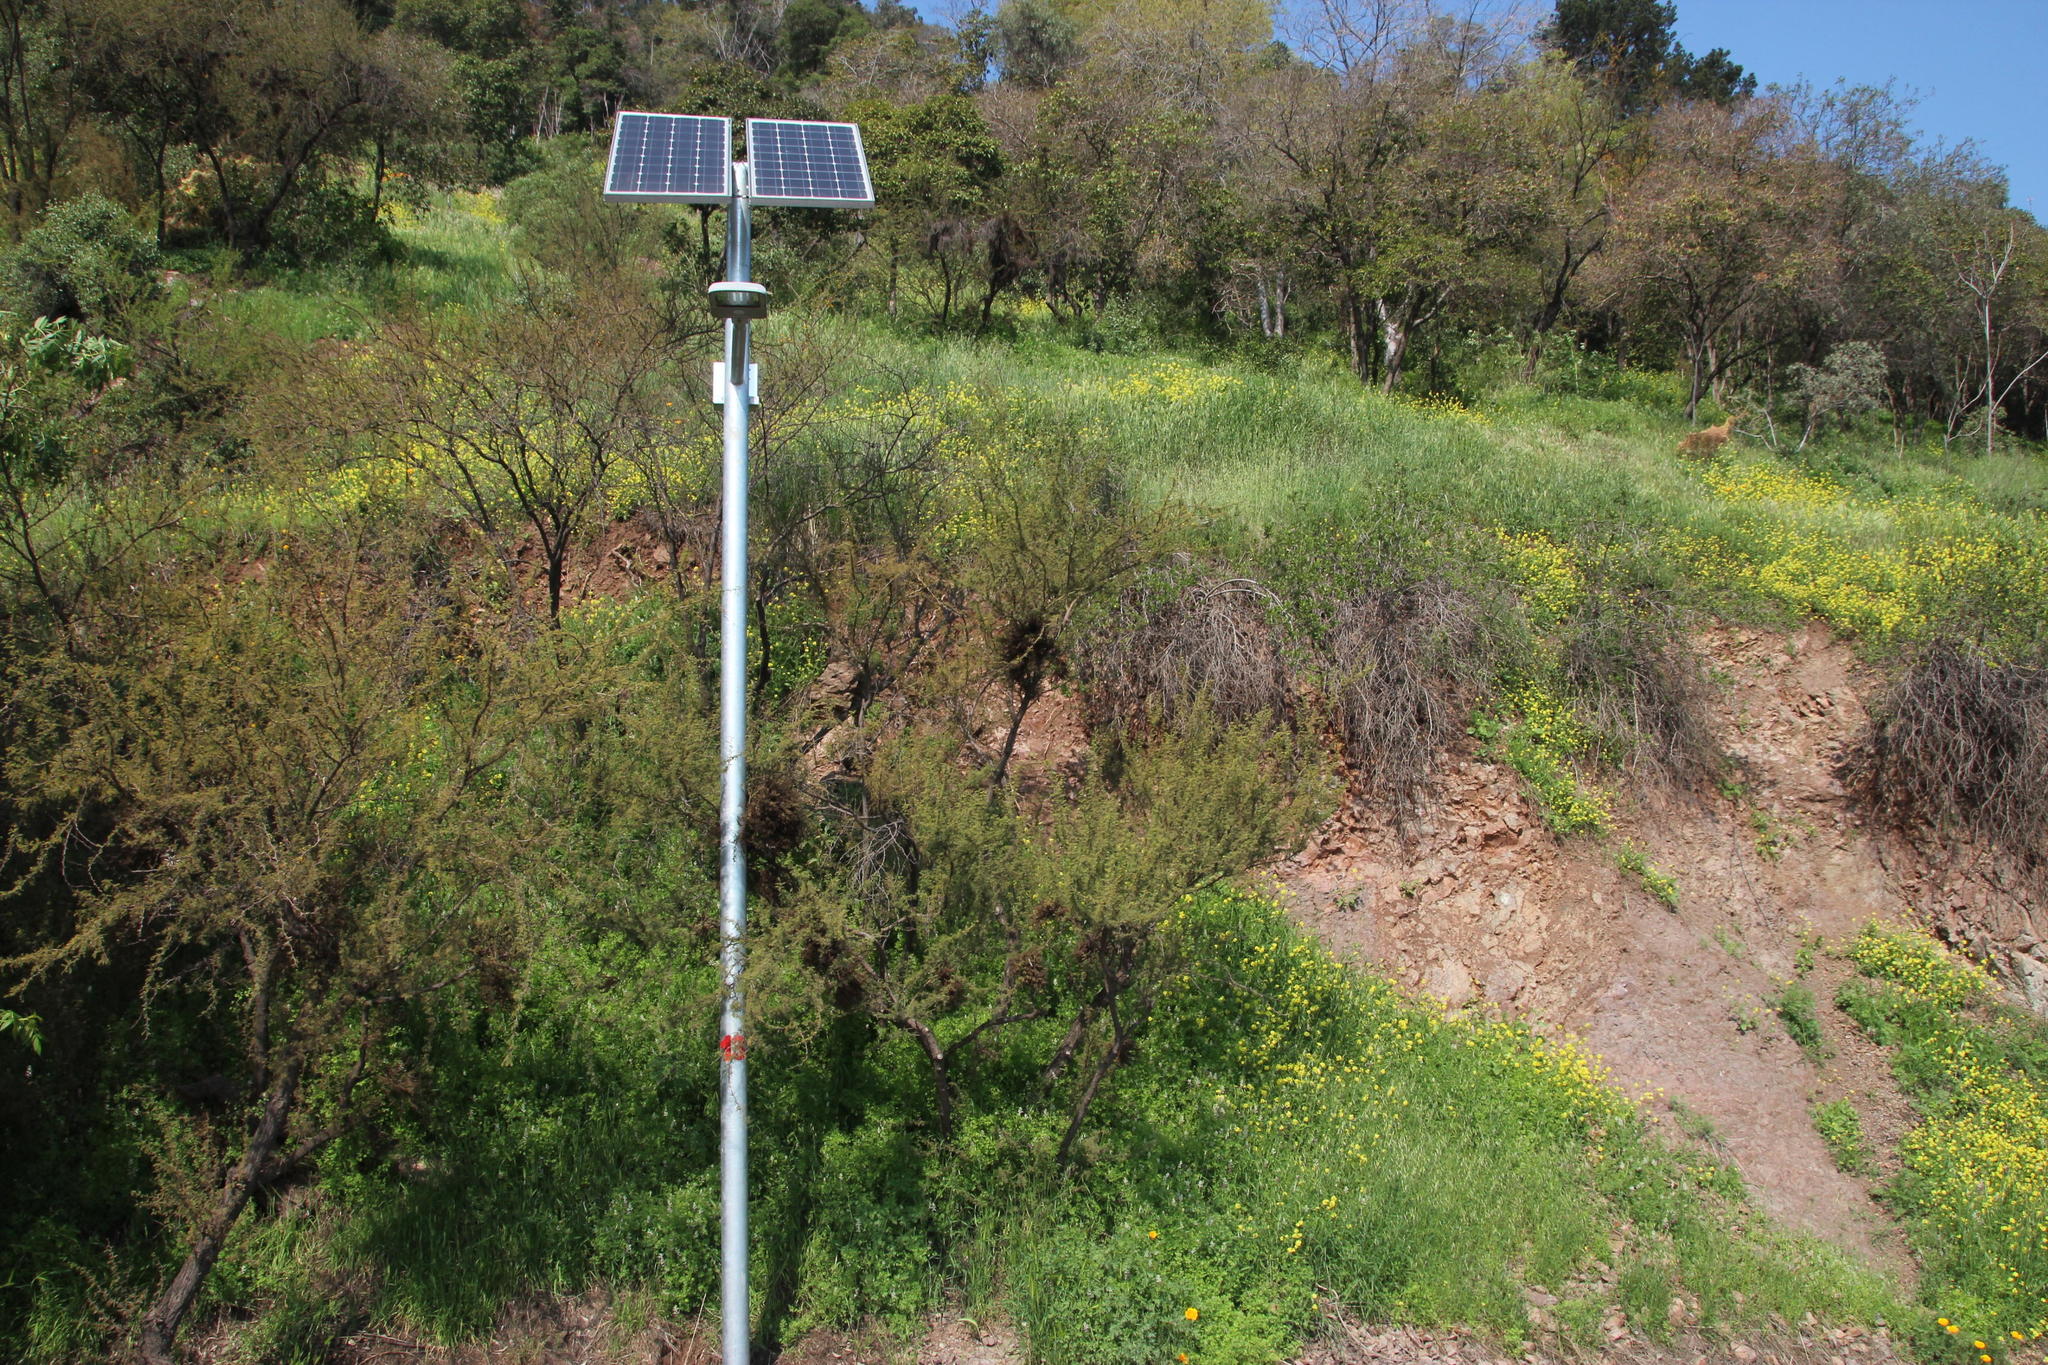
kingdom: Fungi
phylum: Basidiomycota
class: Pucciniomycetes
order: Pucciniales
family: Raveneliaceae
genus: Ravenelia
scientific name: Ravenelia hieronymi
